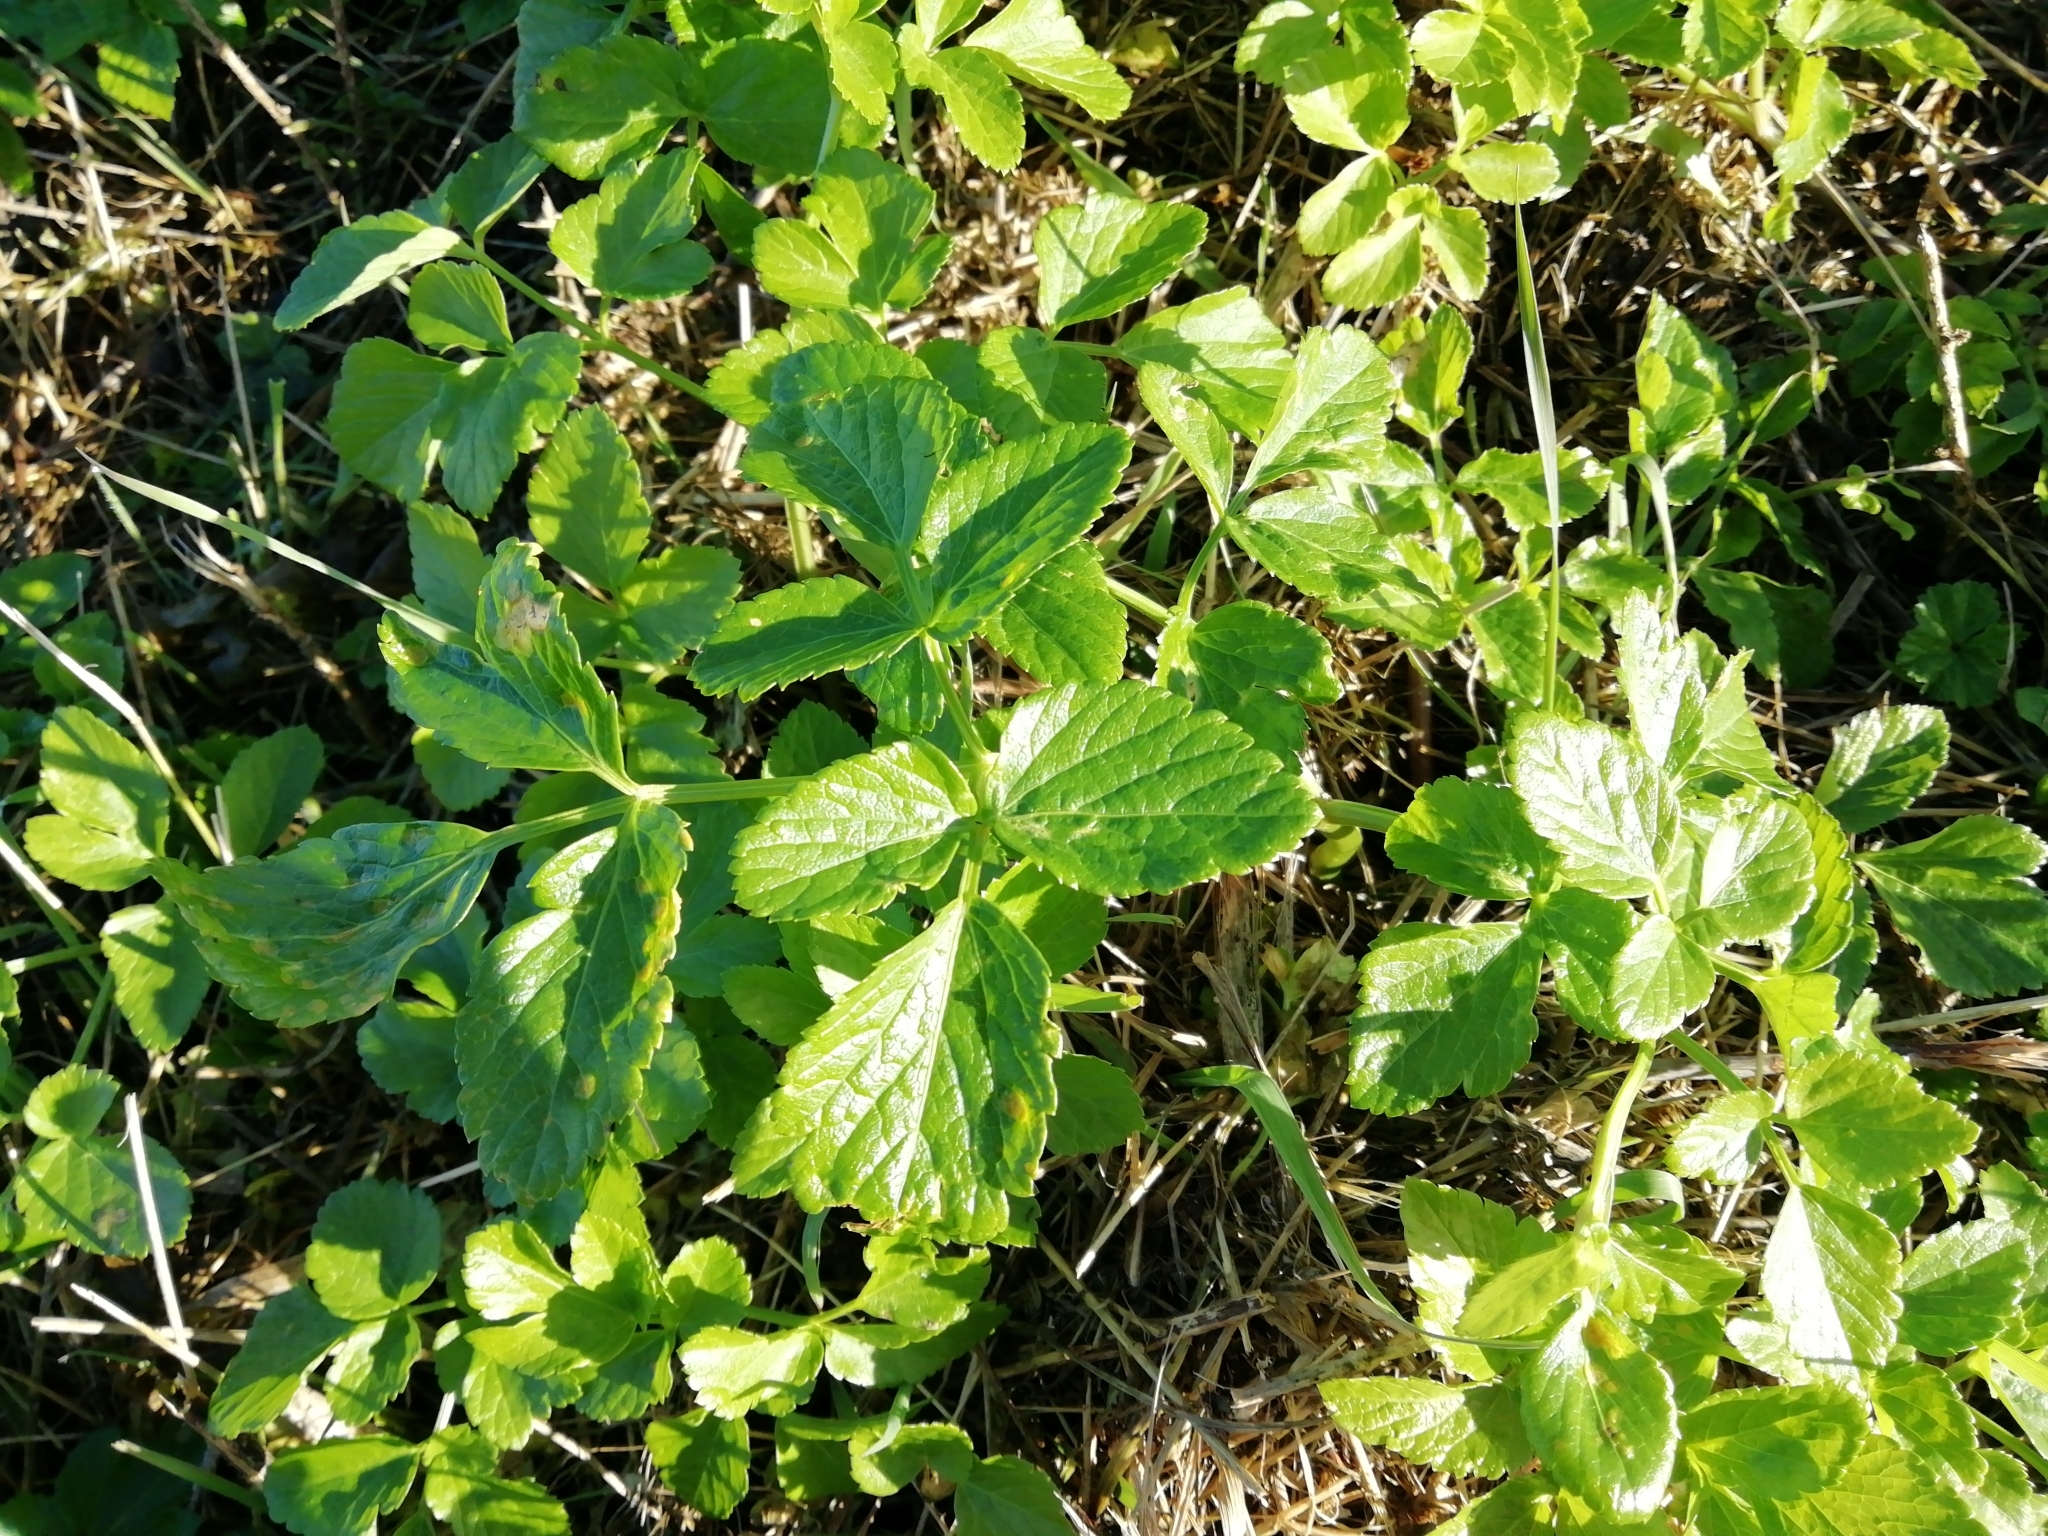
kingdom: Plantae
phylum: Tracheophyta
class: Magnoliopsida
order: Apiales
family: Apiaceae
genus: Smyrnium
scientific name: Smyrnium olusatrum
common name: Alexanders
